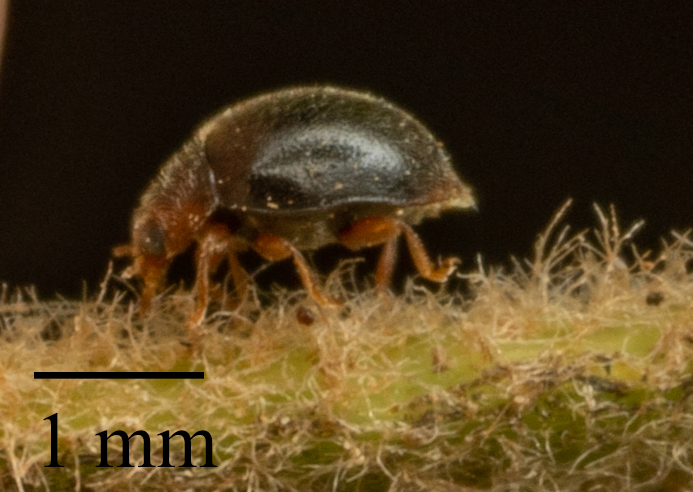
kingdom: Animalia
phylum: Arthropoda
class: Insecta
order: Coleoptera
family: Coccinellidae
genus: Scymnus
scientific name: Scymnus auritus
